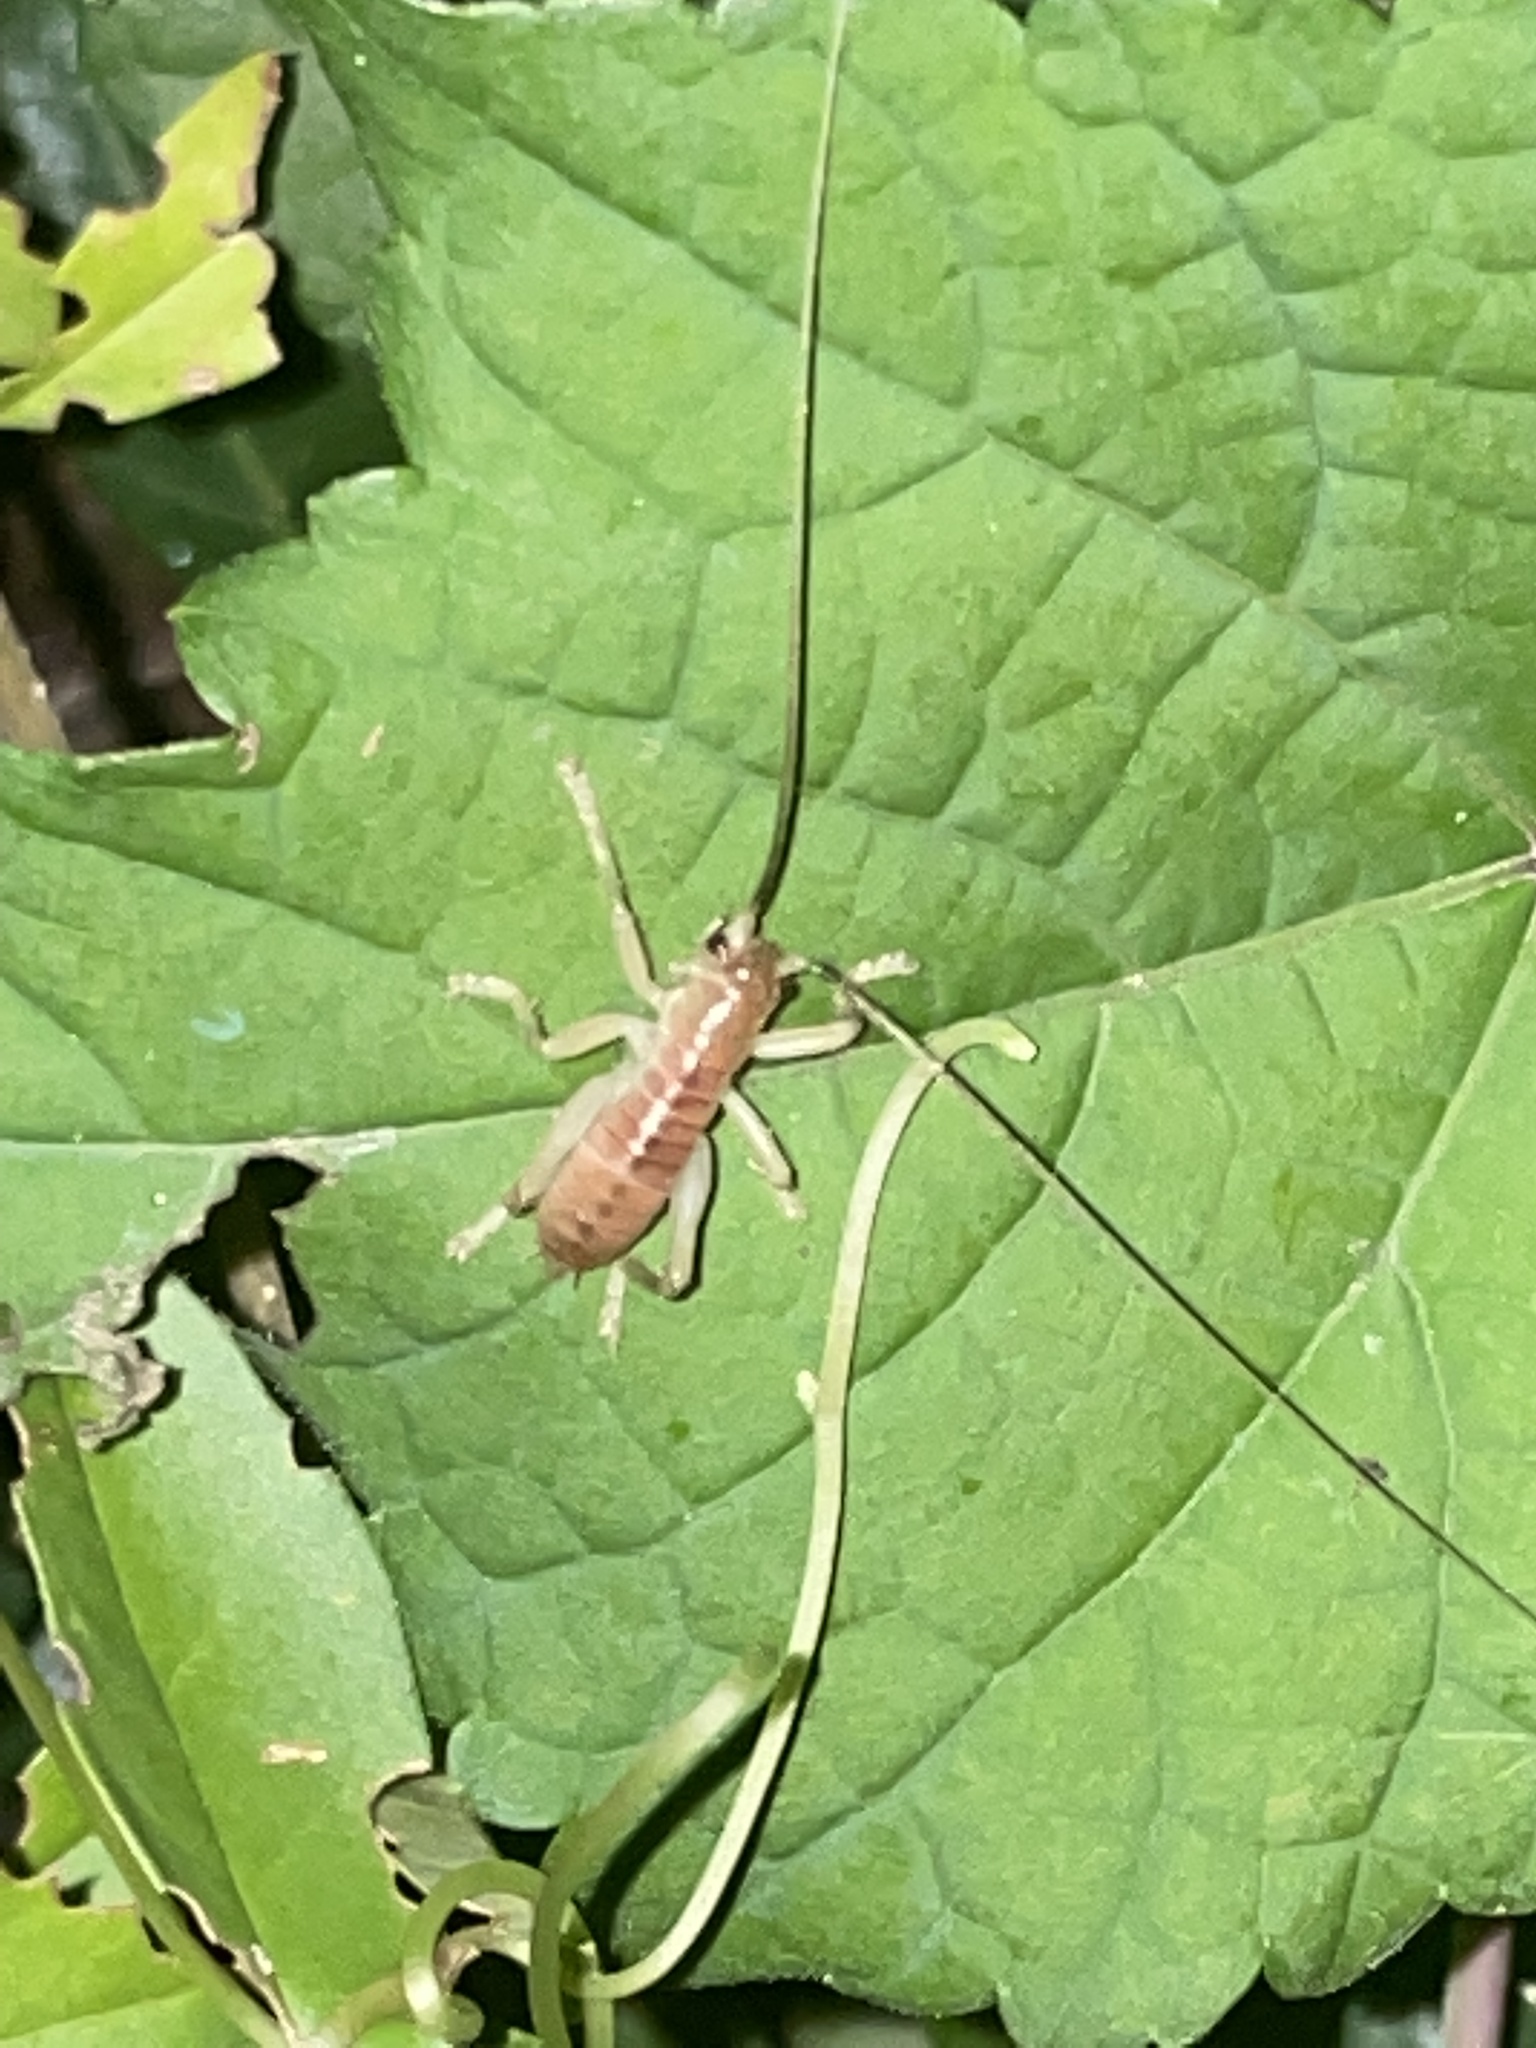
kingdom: Animalia
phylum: Arthropoda
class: Insecta
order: Orthoptera
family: Gryllacrididae
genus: Camptonotus
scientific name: Camptonotus carolinensis
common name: Carolina leaf-roller
